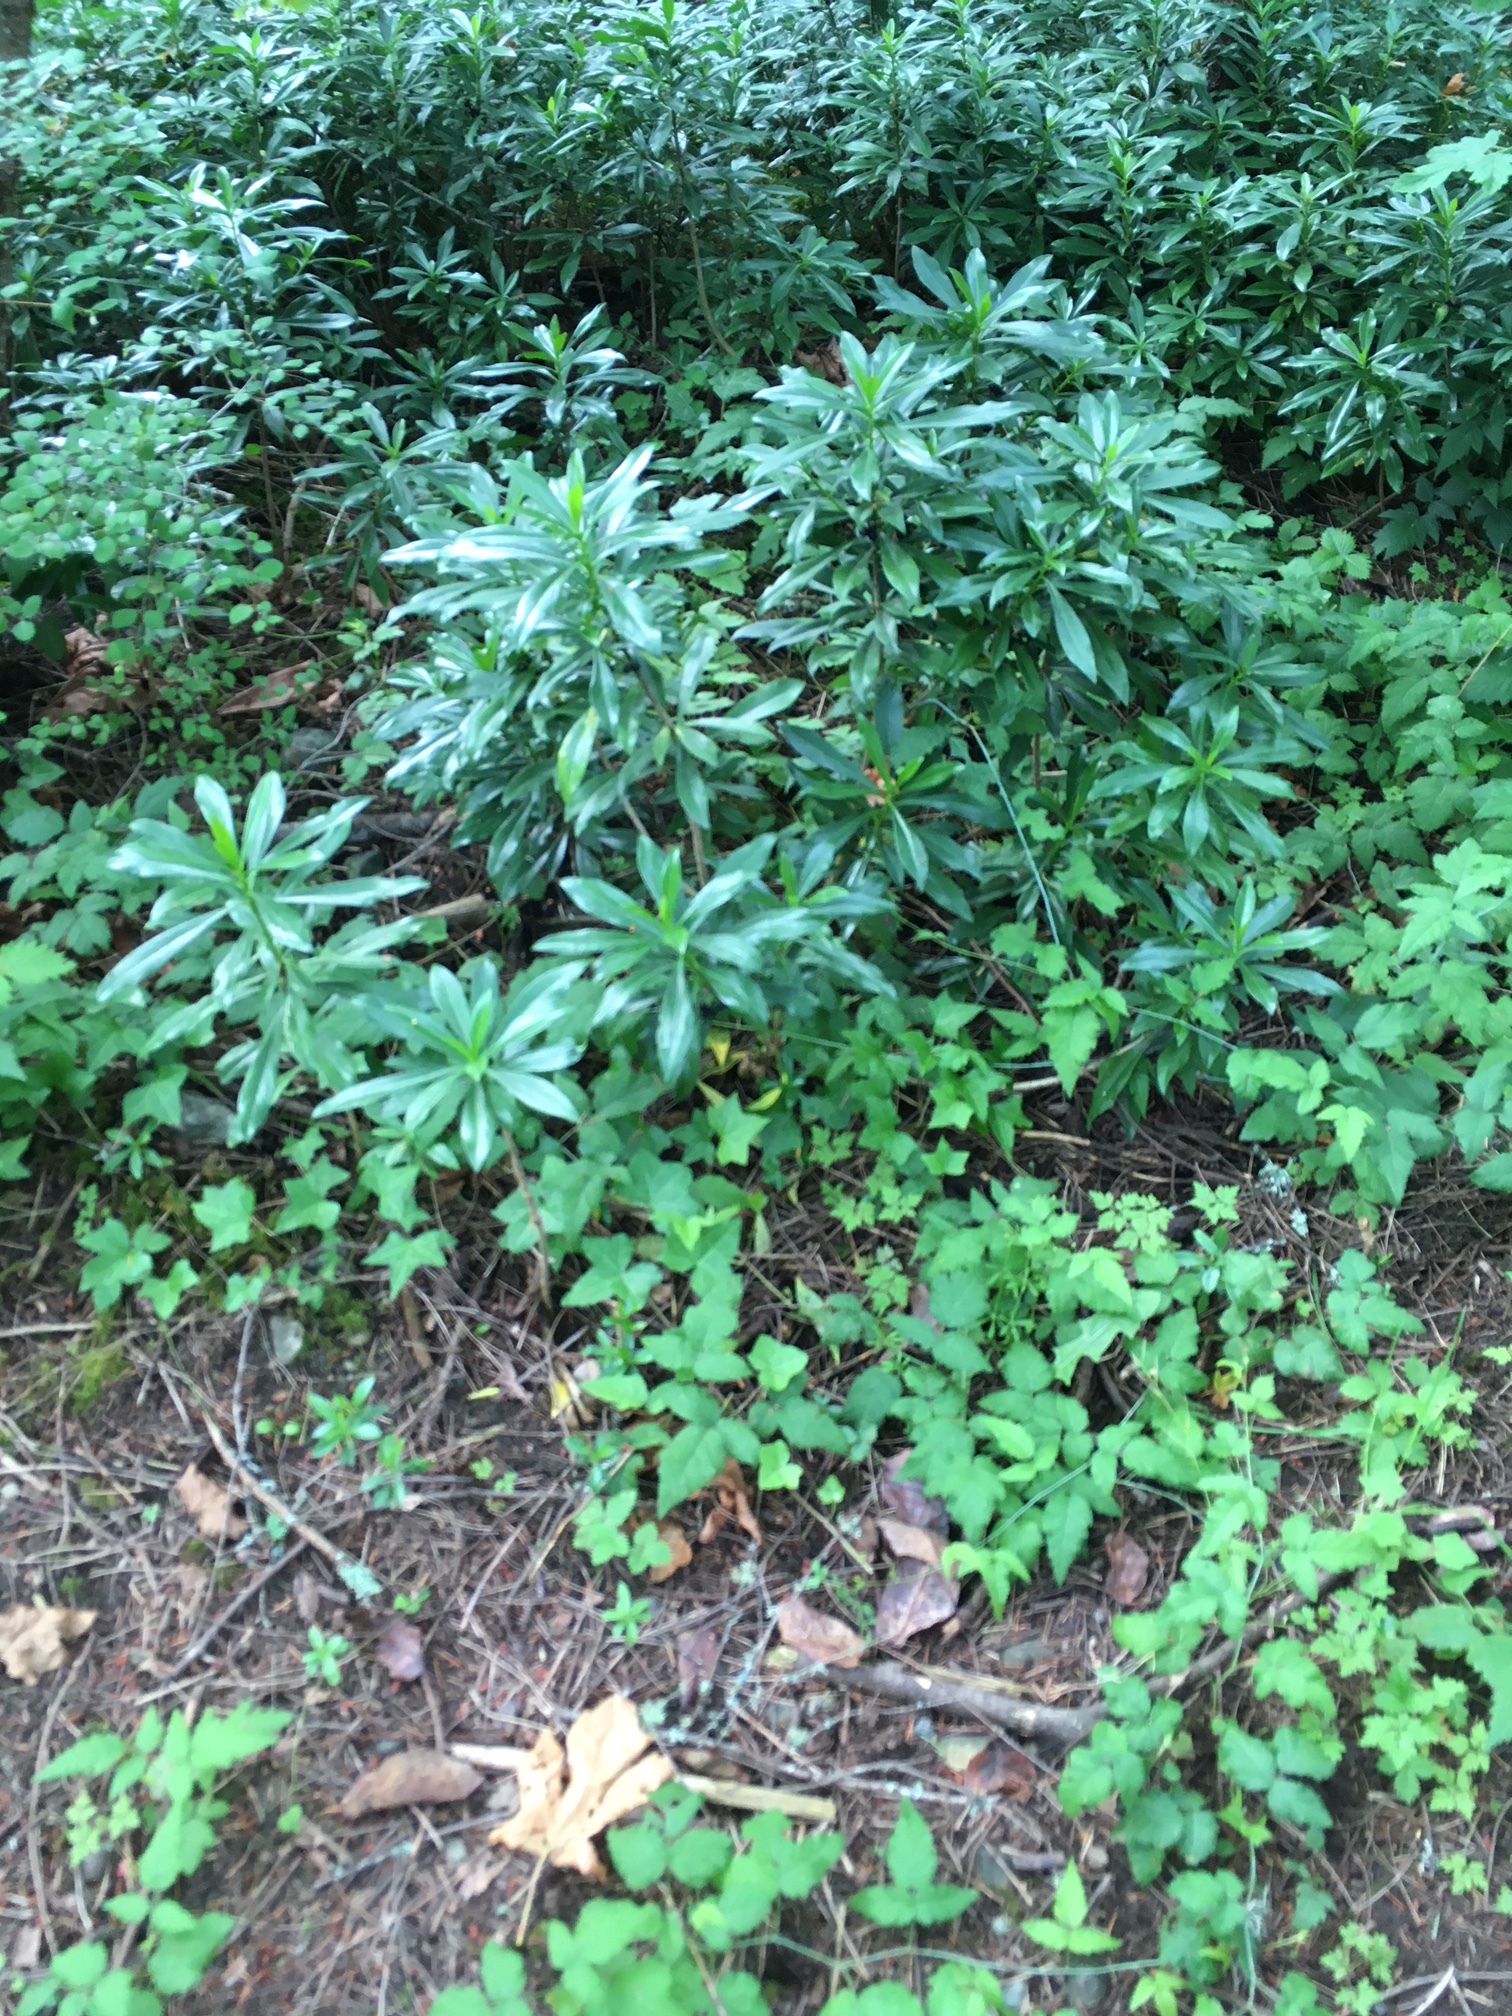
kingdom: Plantae
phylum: Tracheophyta
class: Magnoliopsida
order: Malvales
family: Thymelaeaceae
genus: Daphne
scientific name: Daphne laureola
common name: Spurge-laurel
